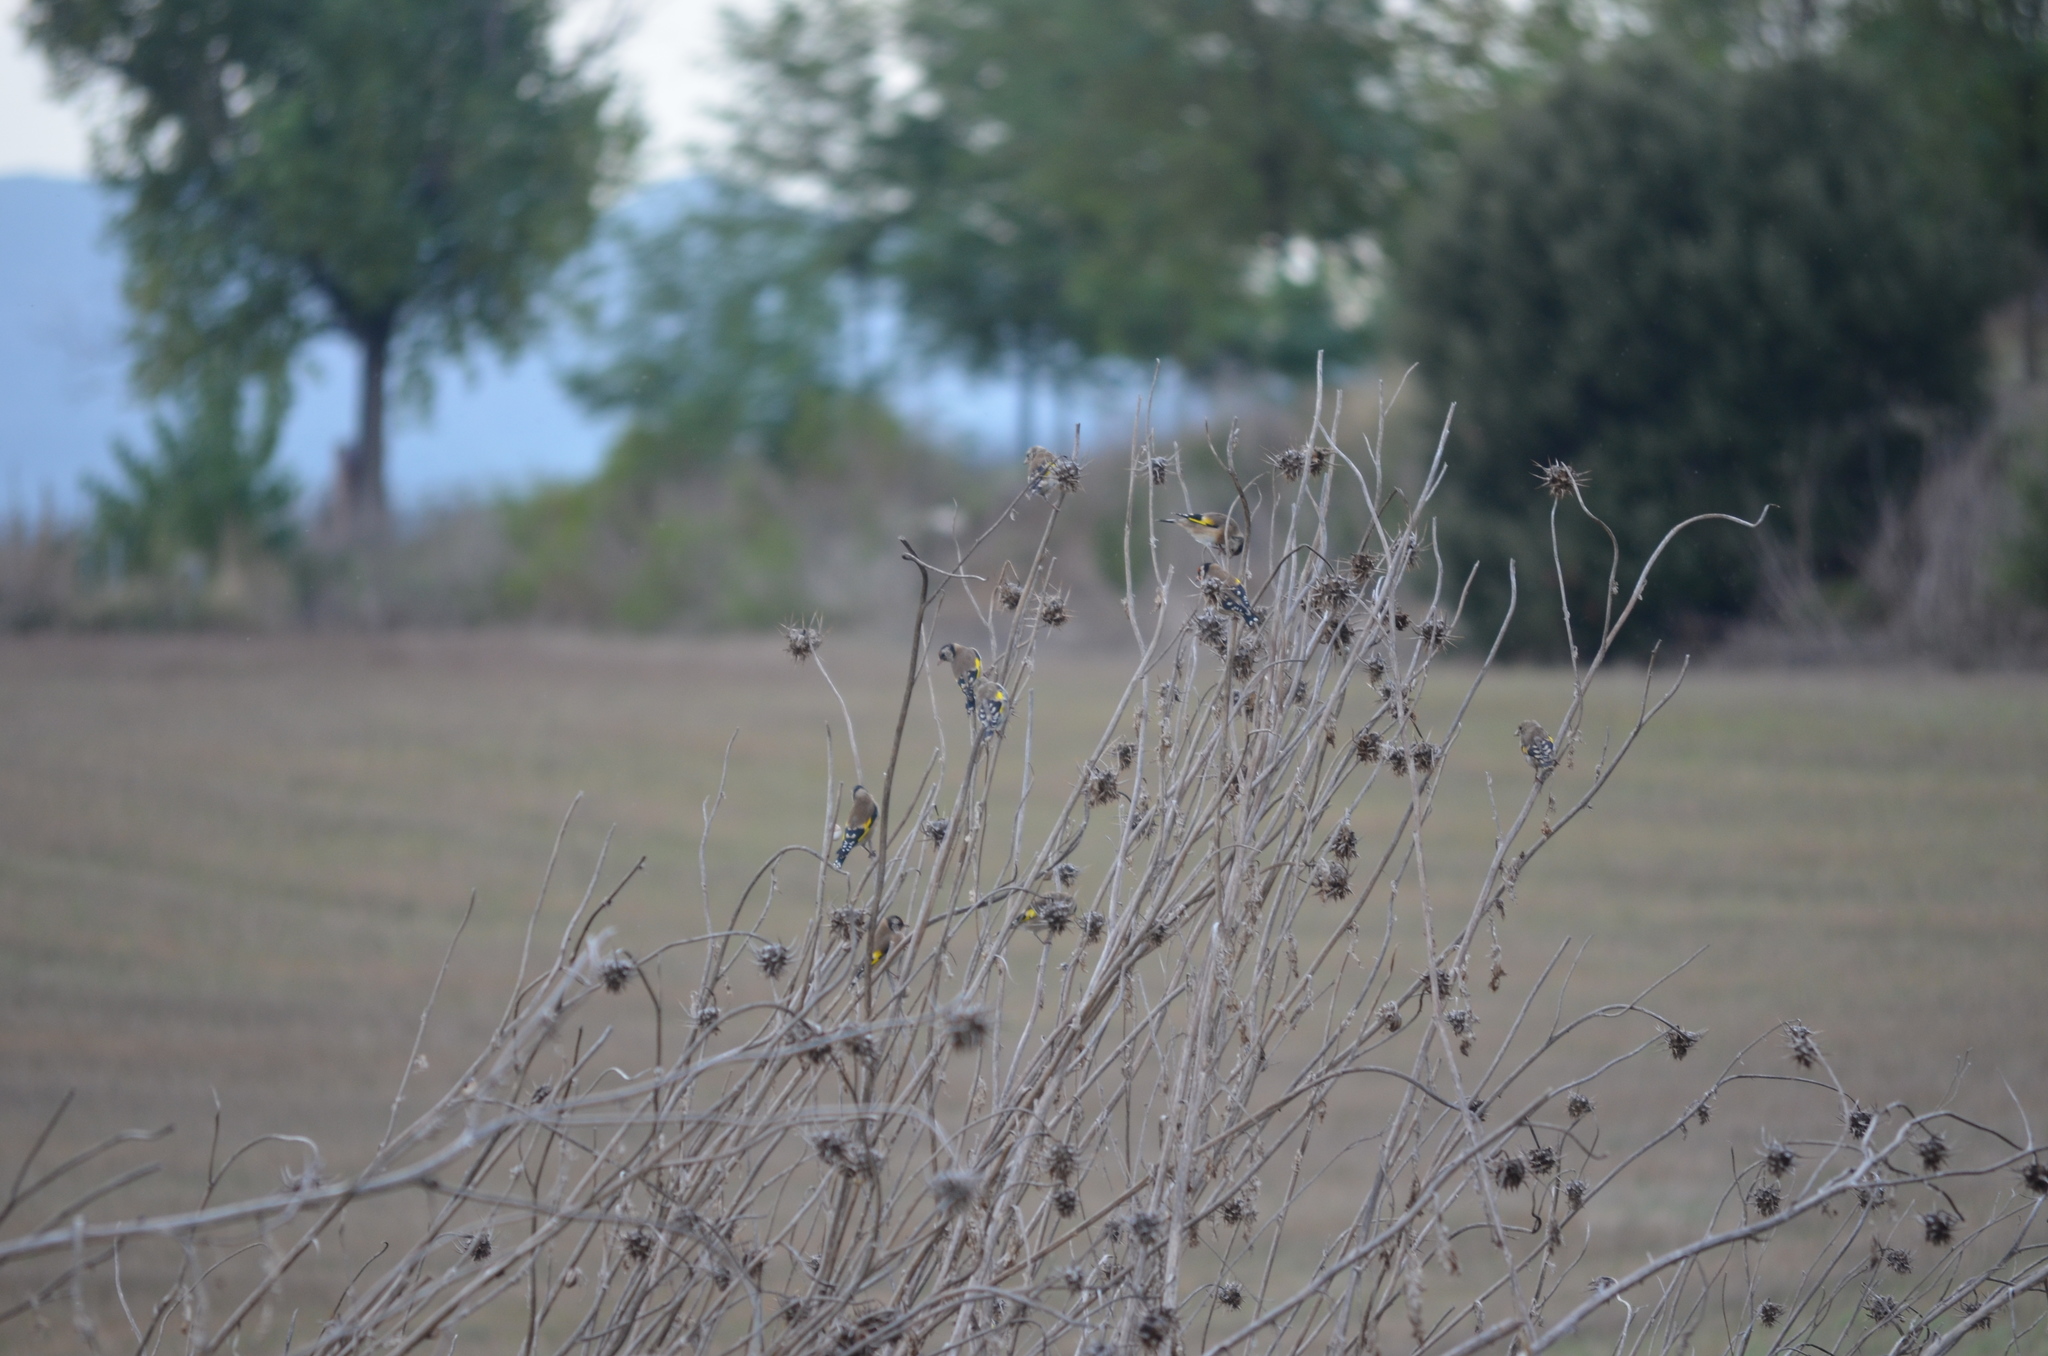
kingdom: Animalia
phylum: Chordata
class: Aves
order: Passeriformes
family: Fringillidae
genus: Carduelis
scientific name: Carduelis carduelis
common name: European goldfinch
